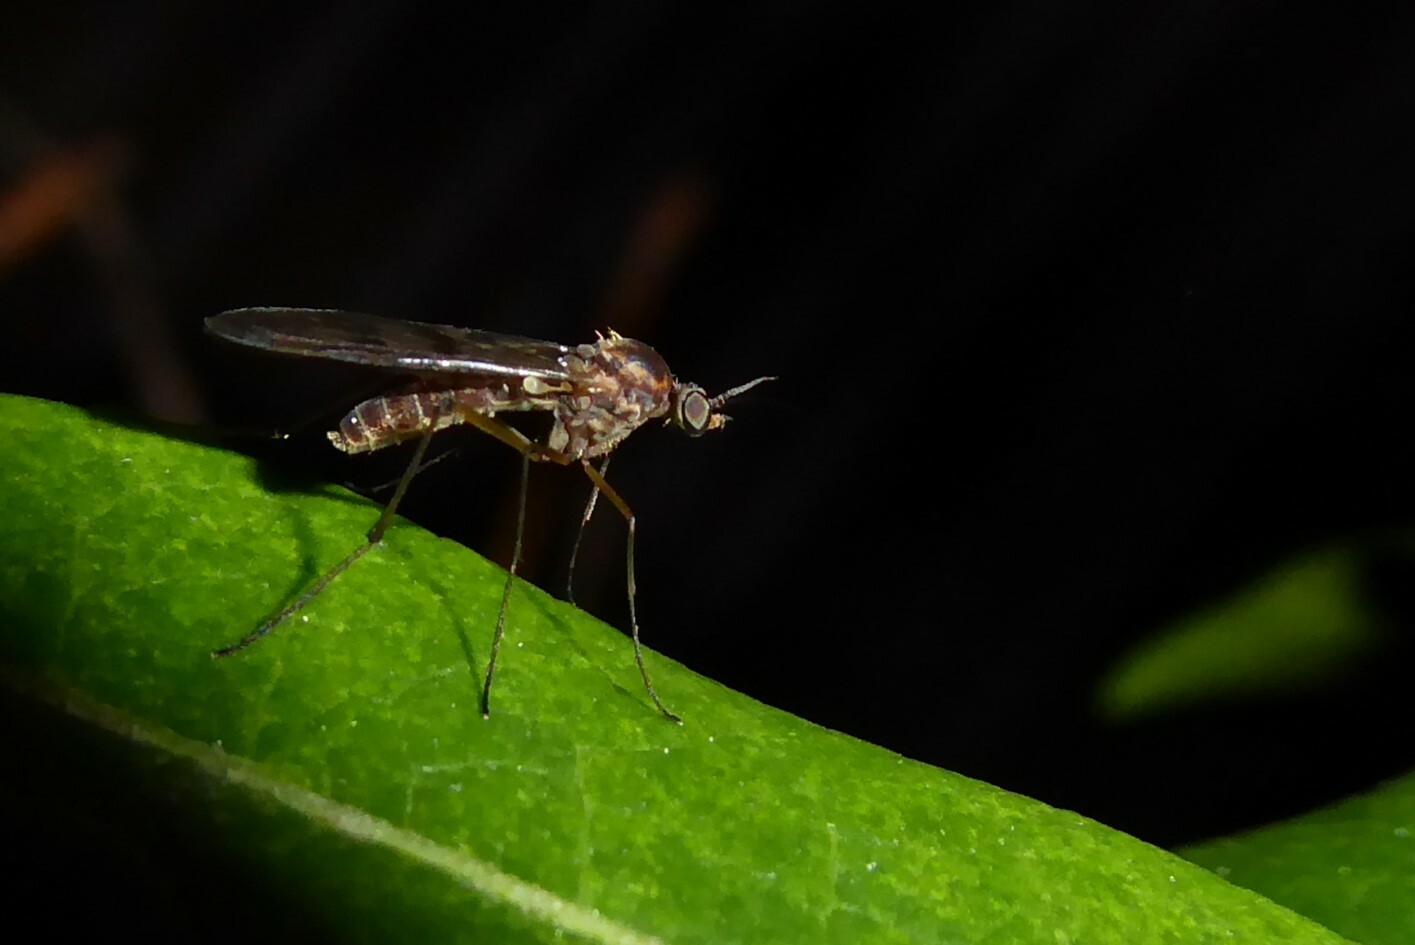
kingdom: Animalia
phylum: Arthropoda
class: Insecta
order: Diptera
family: Anisopodidae
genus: Sylvicola
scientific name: Sylvicola undulatus
